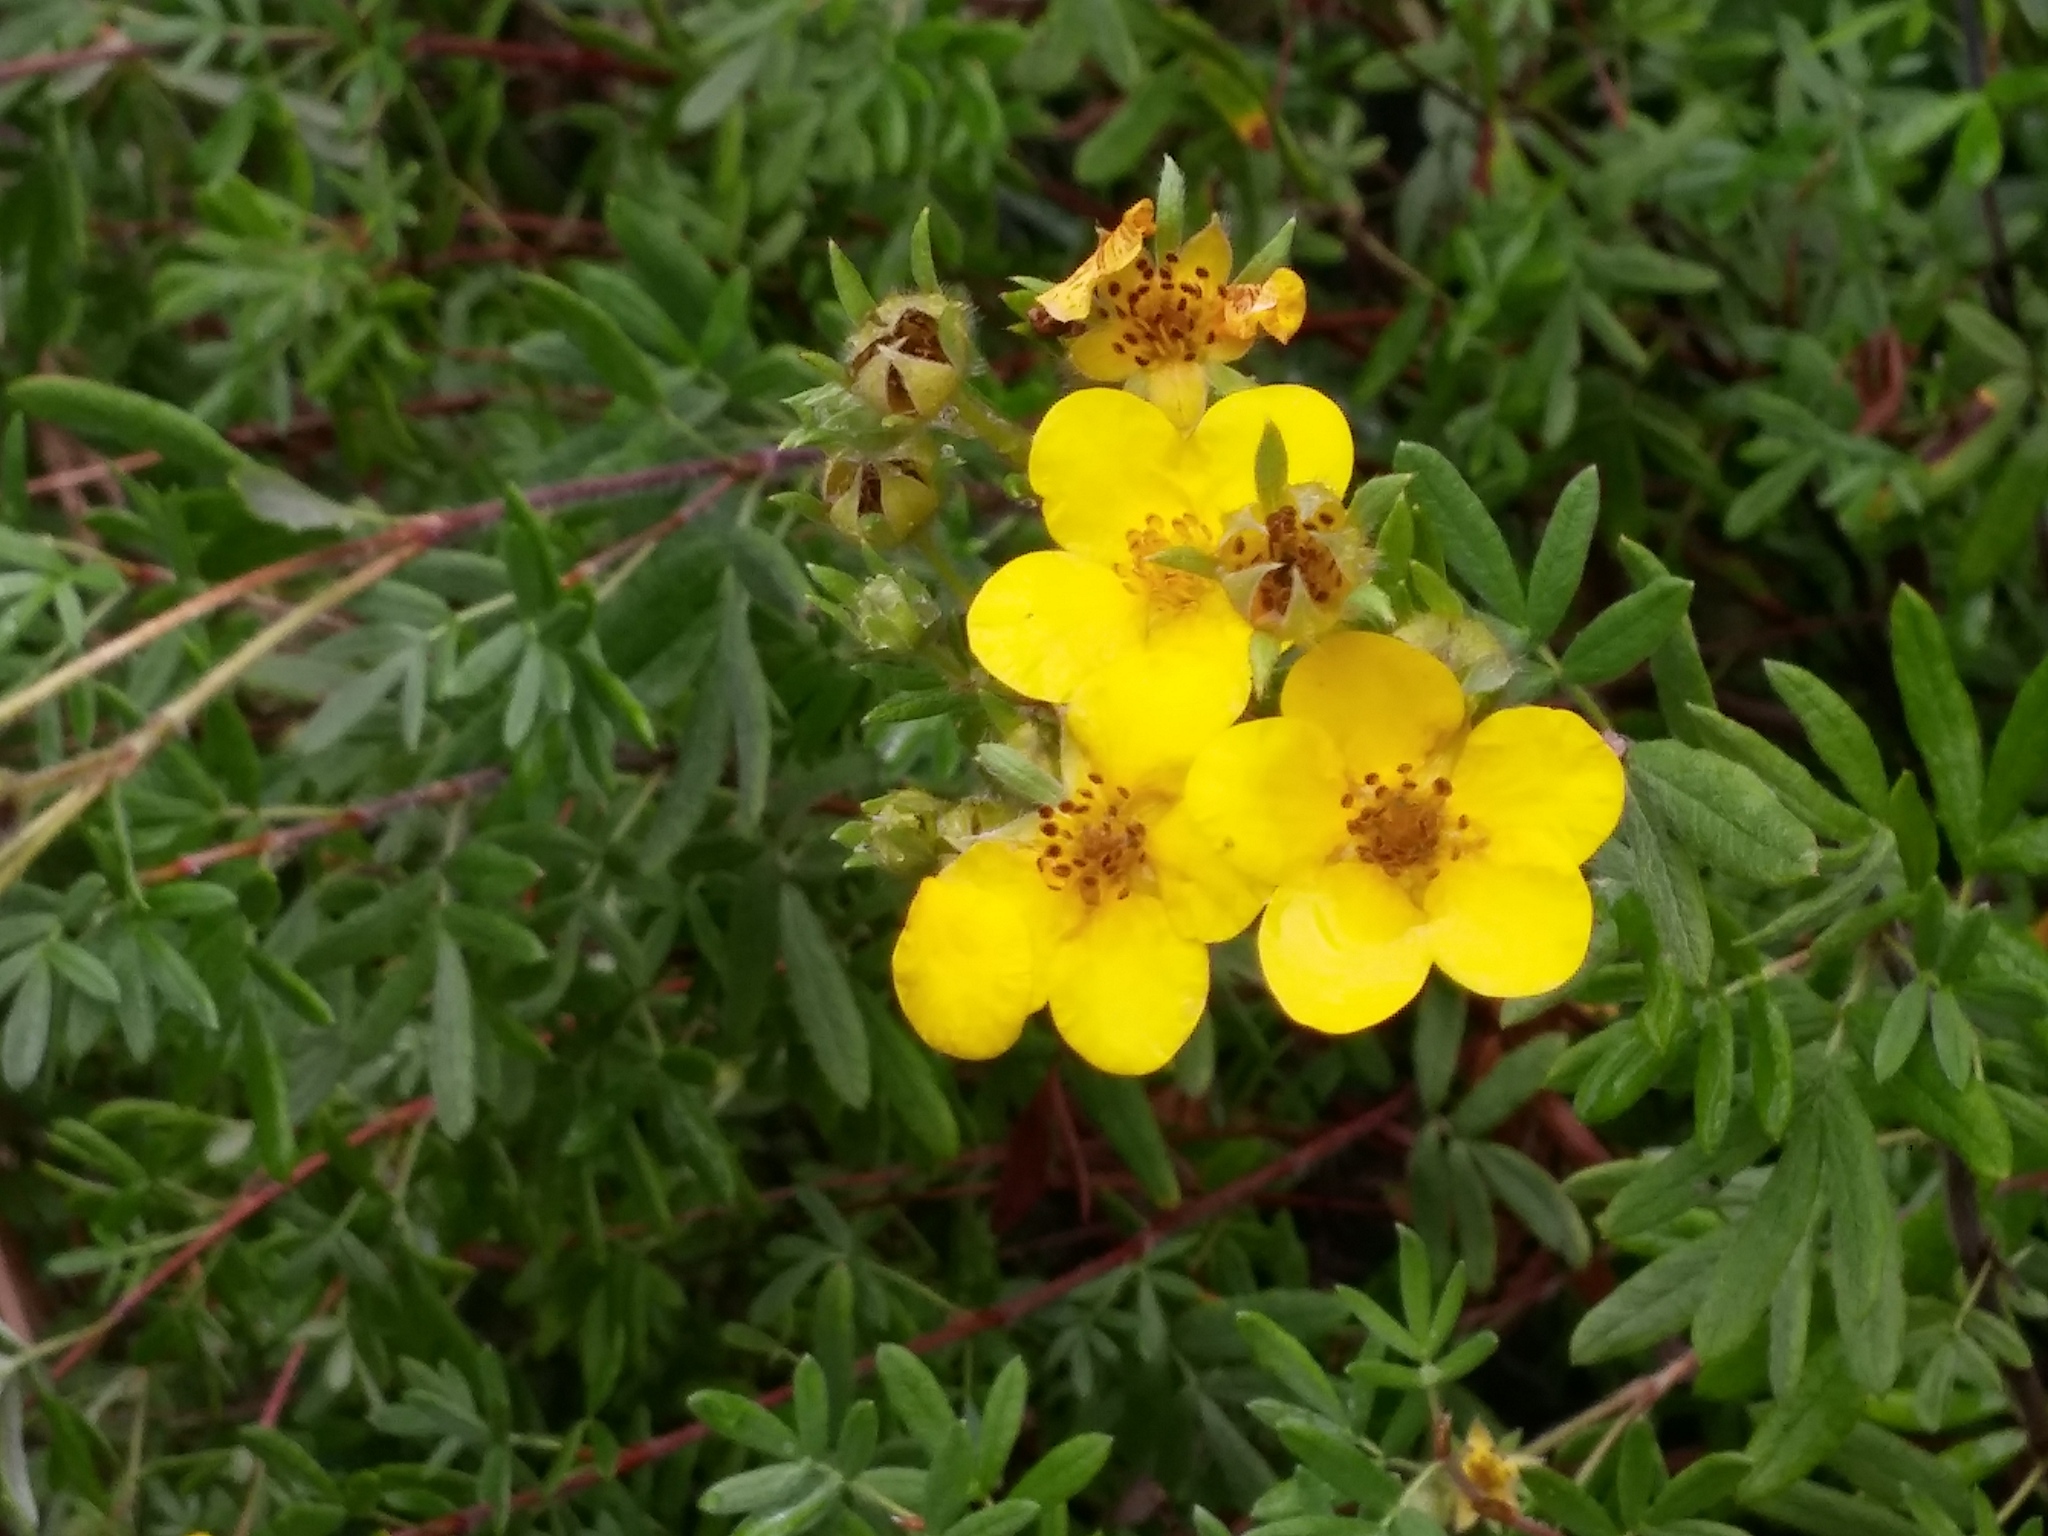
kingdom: Plantae
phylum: Tracheophyta
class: Magnoliopsida
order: Rosales
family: Rosaceae
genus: Dasiphora
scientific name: Dasiphora fruticosa
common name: Shrubby cinquefoil
